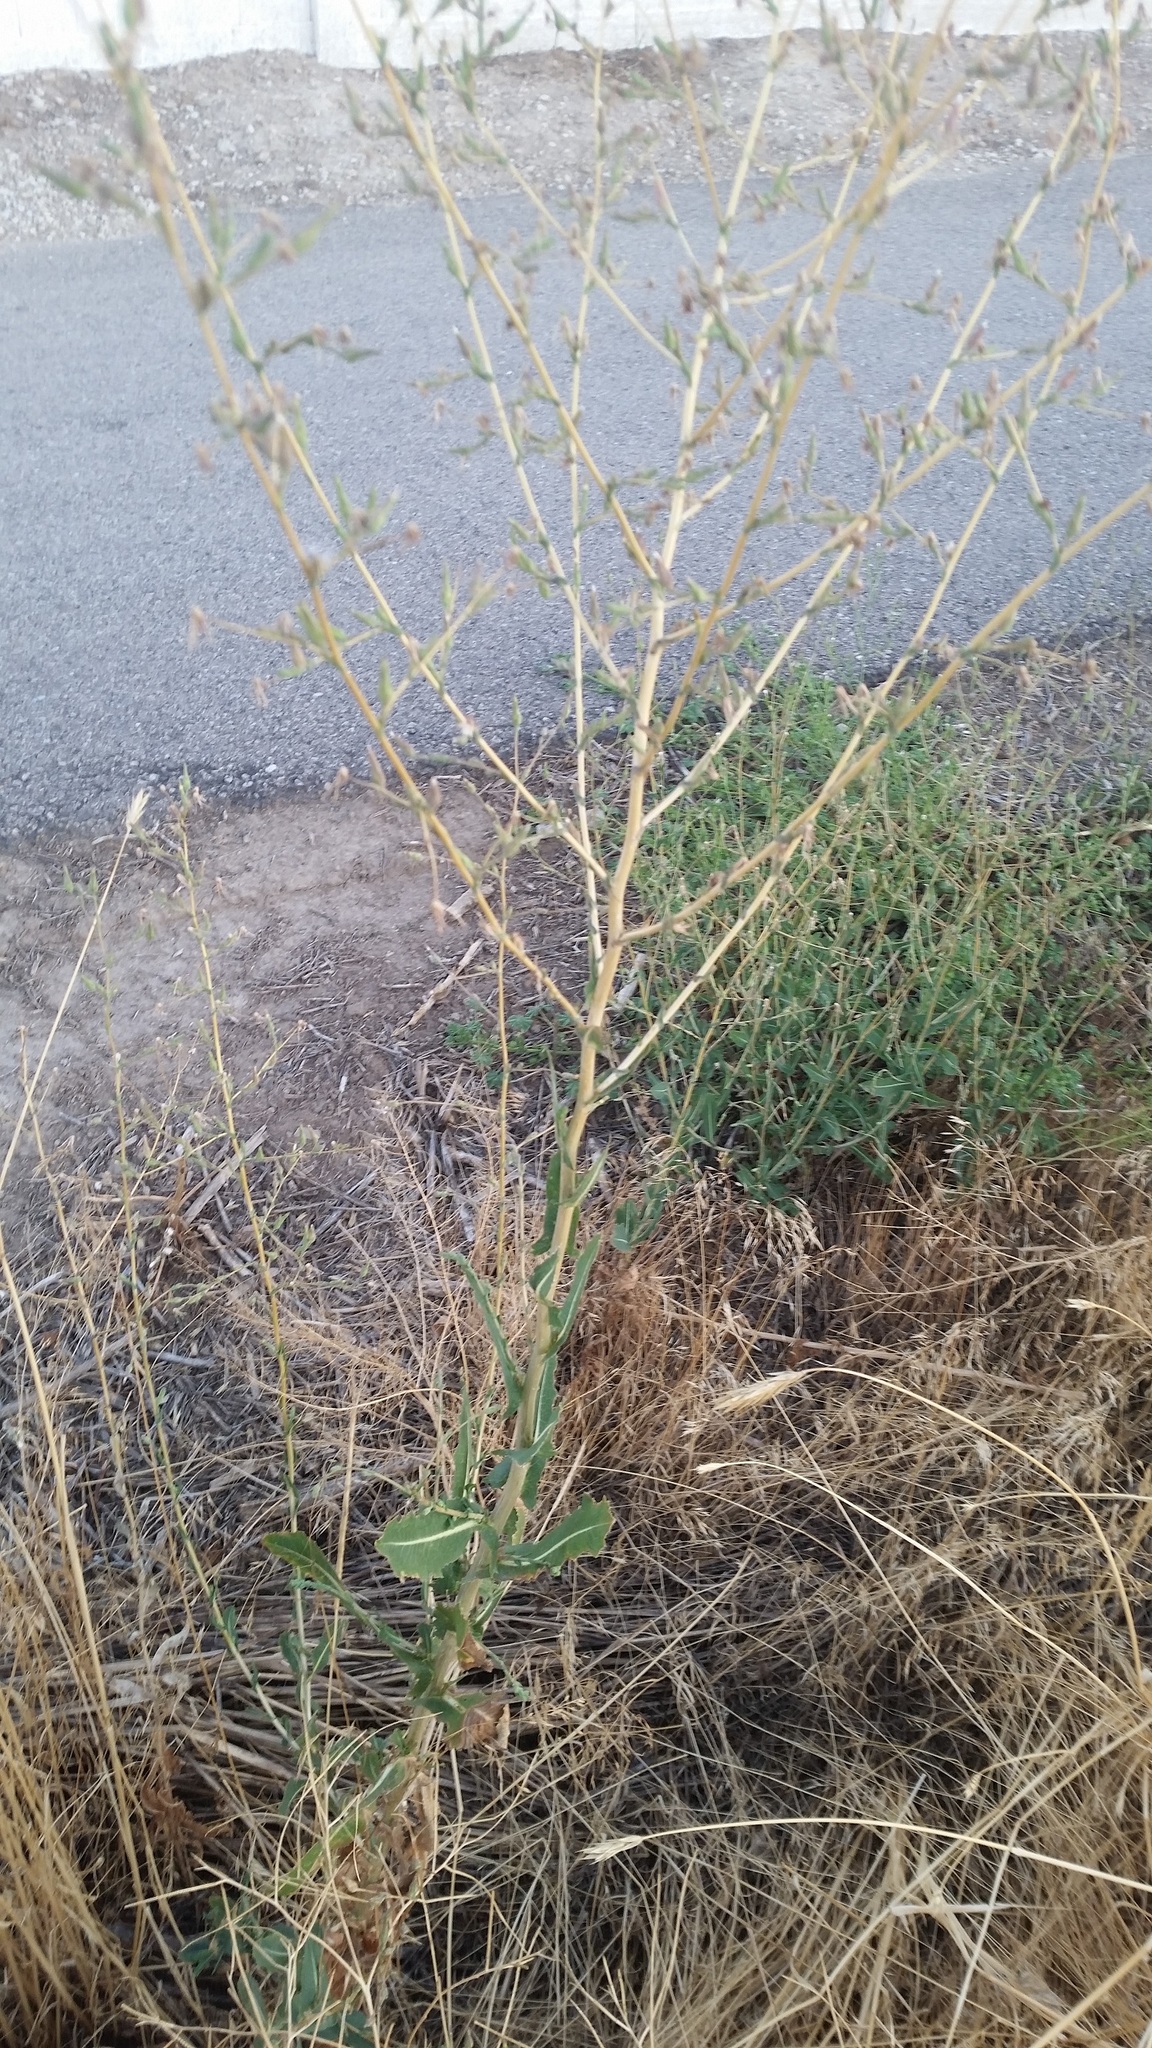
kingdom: Plantae
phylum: Tracheophyta
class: Magnoliopsida
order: Asterales
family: Asteraceae
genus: Lactuca
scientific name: Lactuca serriola
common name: Prickly lettuce
